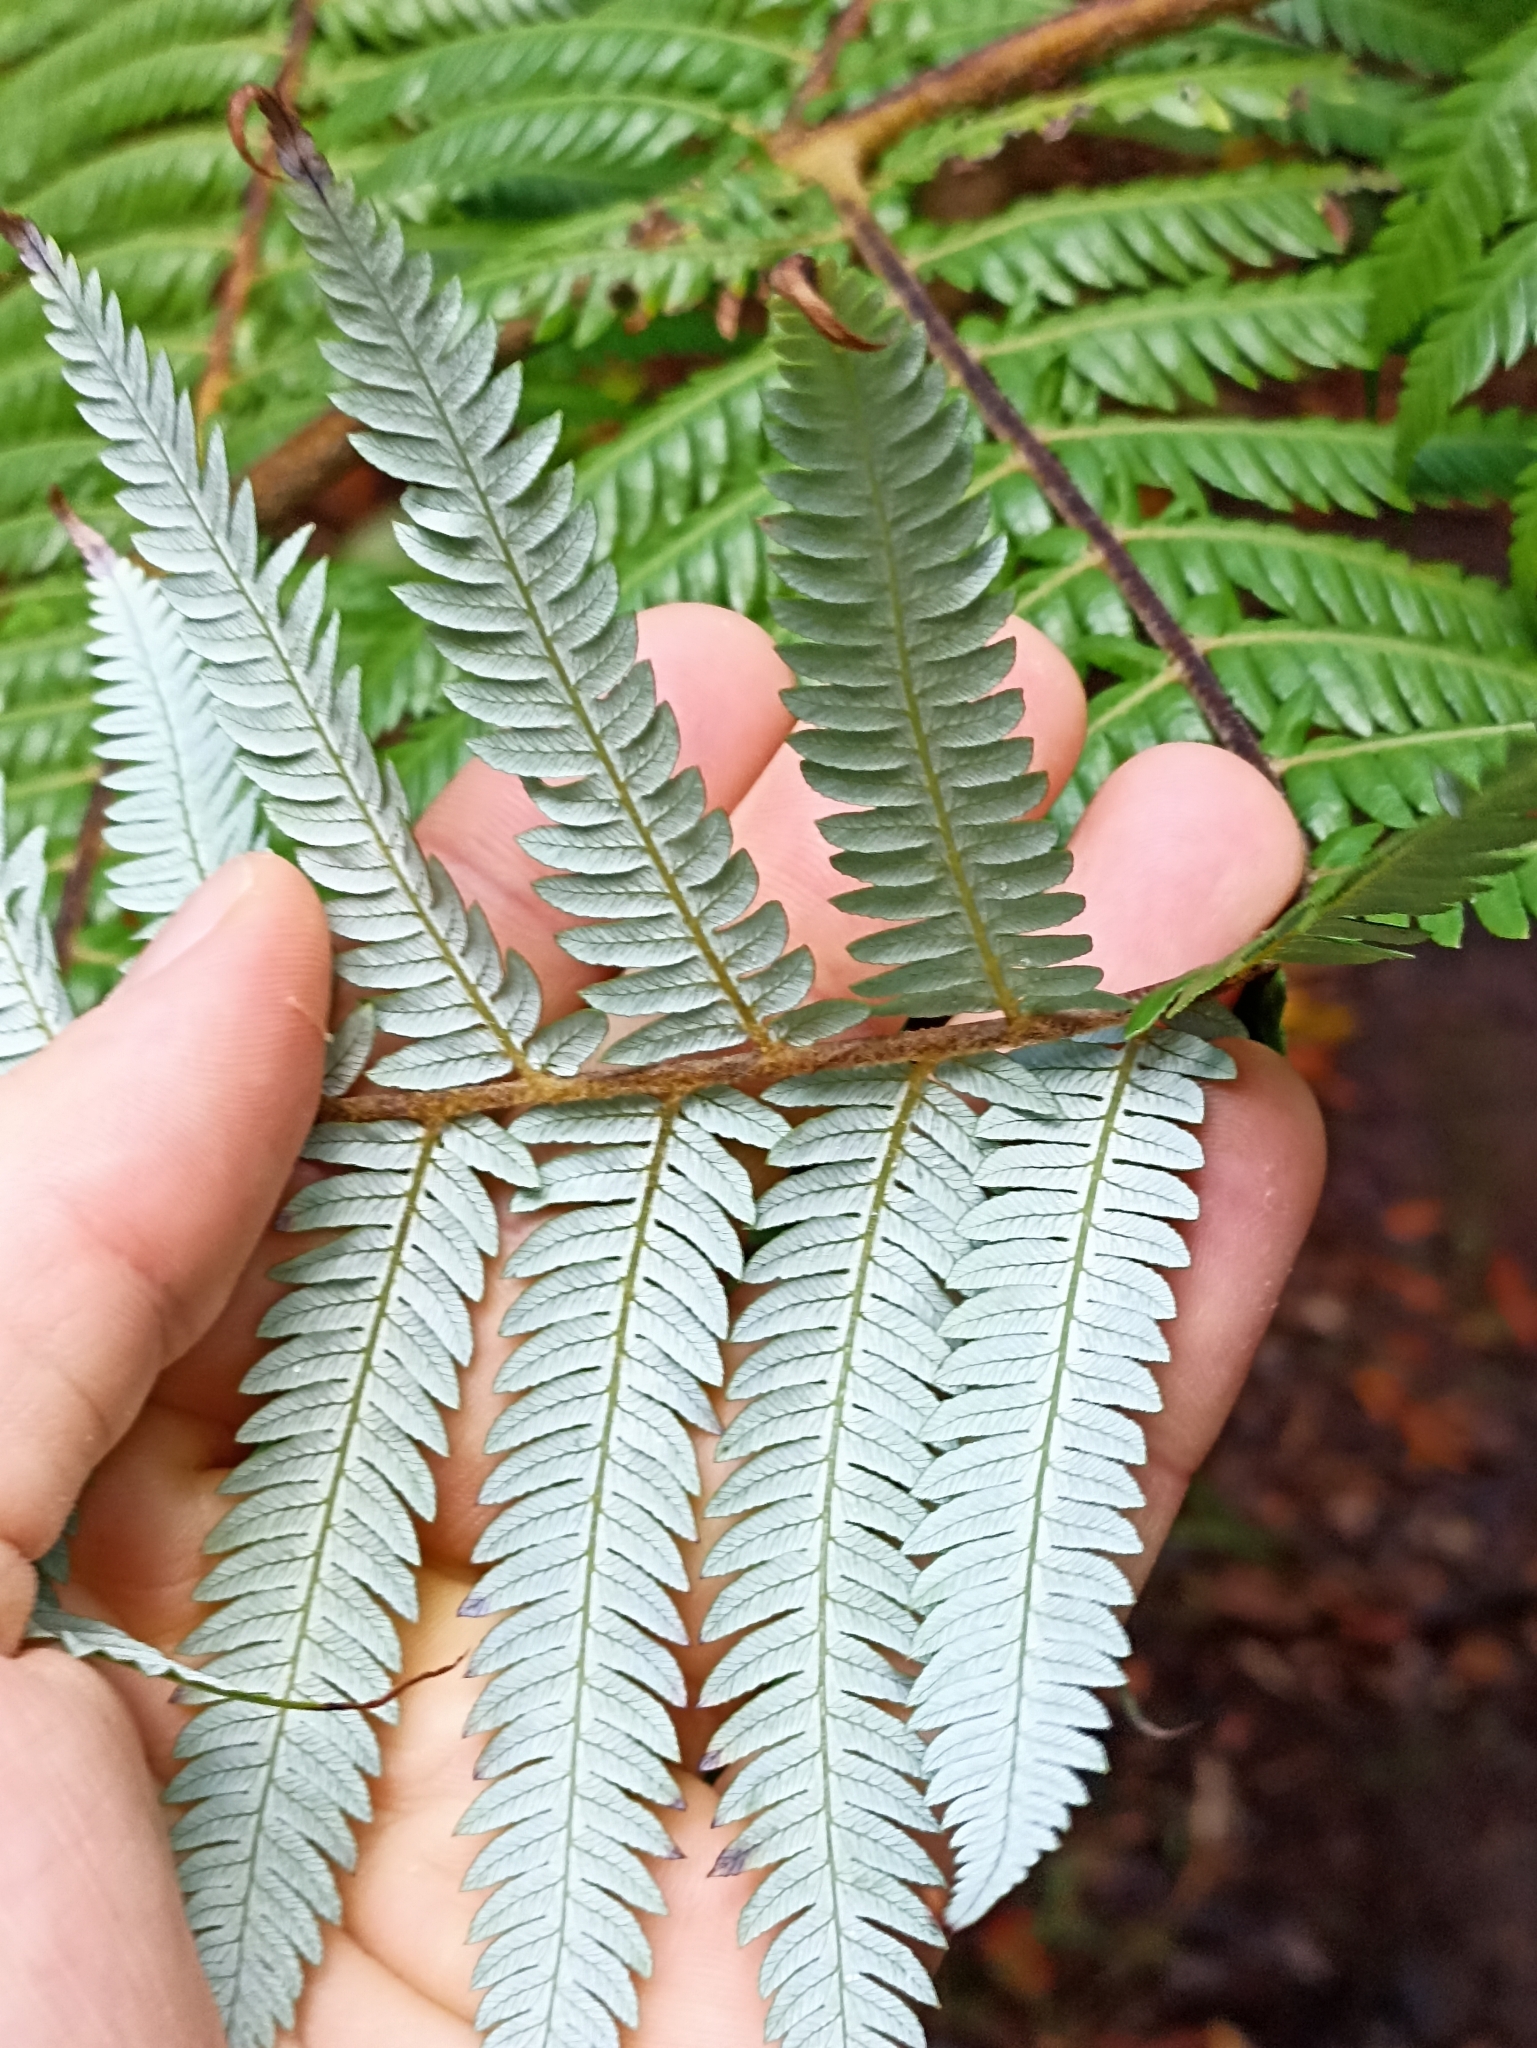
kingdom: Plantae
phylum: Tracheophyta
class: Polypodiopsida
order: Cyatheales
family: Cyatheaceae
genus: Alsophila
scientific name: Alsophila dealbata
